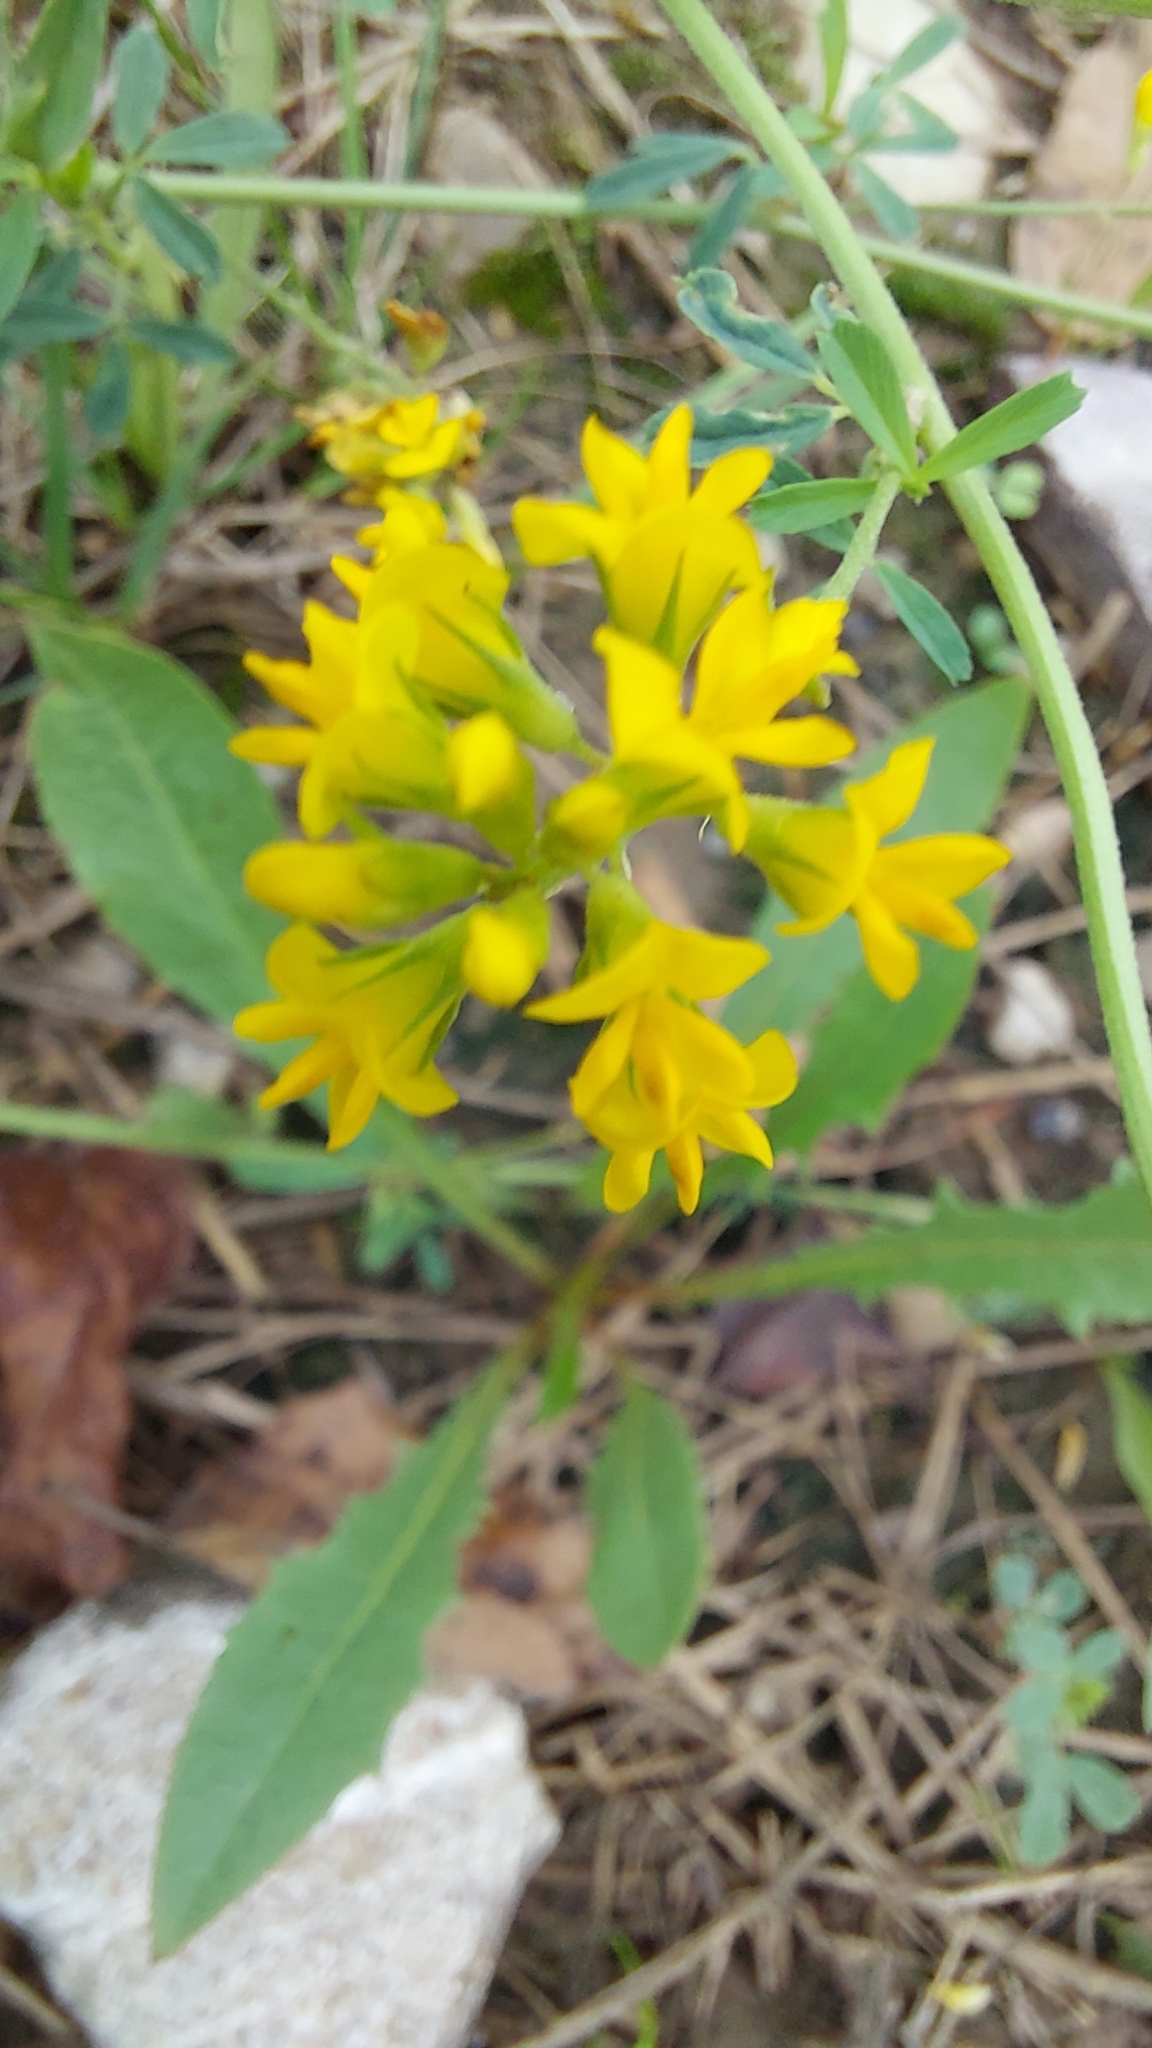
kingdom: Plantae
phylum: Tracheophyta
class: Magnoliopsida
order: Fabales
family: Fabaceae
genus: Medicago
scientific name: Medicago falcata
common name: Sickle medick
